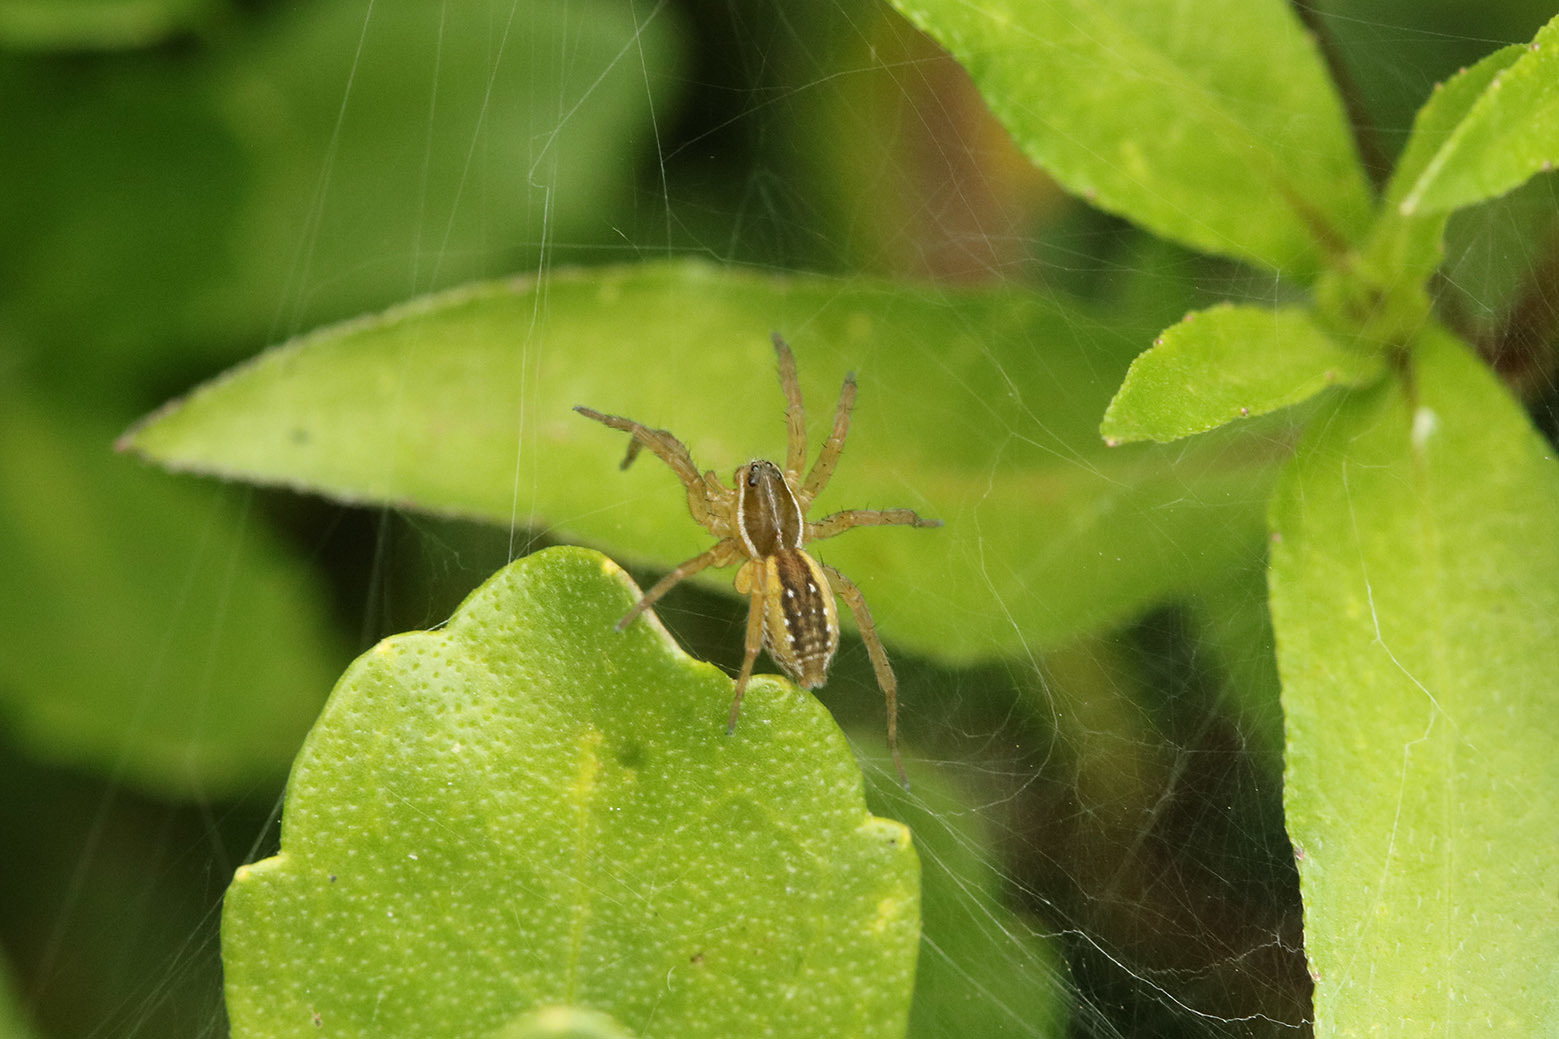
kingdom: Animalia
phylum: Arthropoda
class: Arachnida
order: Araneae
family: Lycosidae
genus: Diapontia
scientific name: Diapontia uruguayensis
